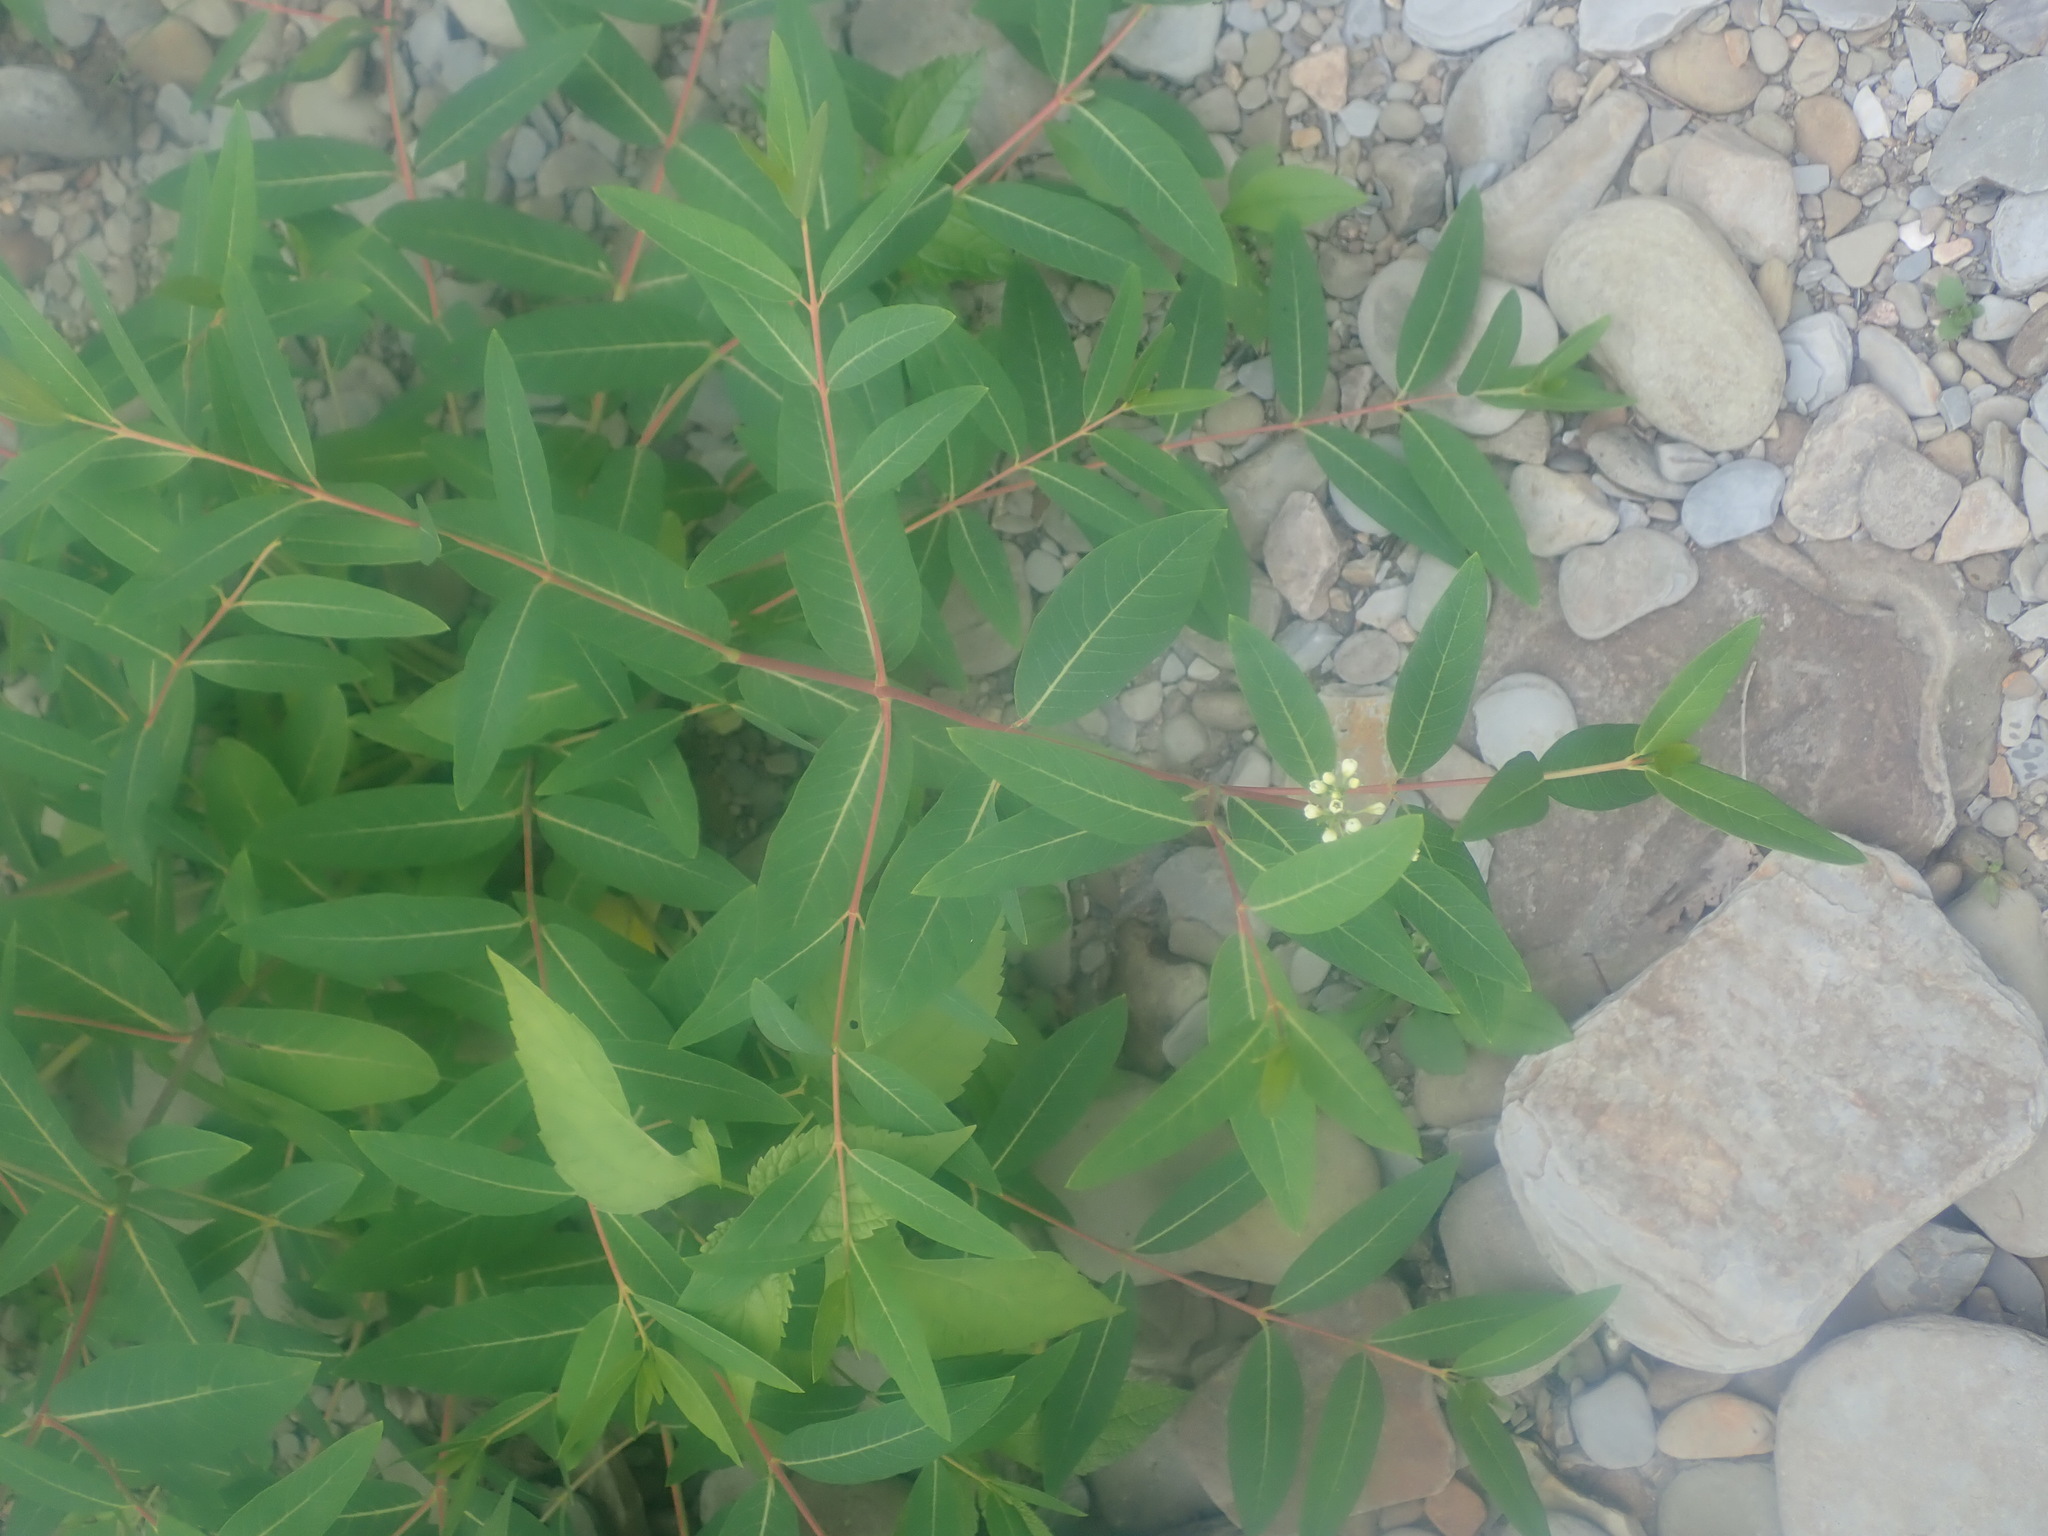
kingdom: Plantae
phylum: Tracheophyta
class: Magnoliopsida
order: Gentianales
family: Apocynaceae
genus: Apocynum
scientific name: Apocynum cannabinum
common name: Hemp dogbane
